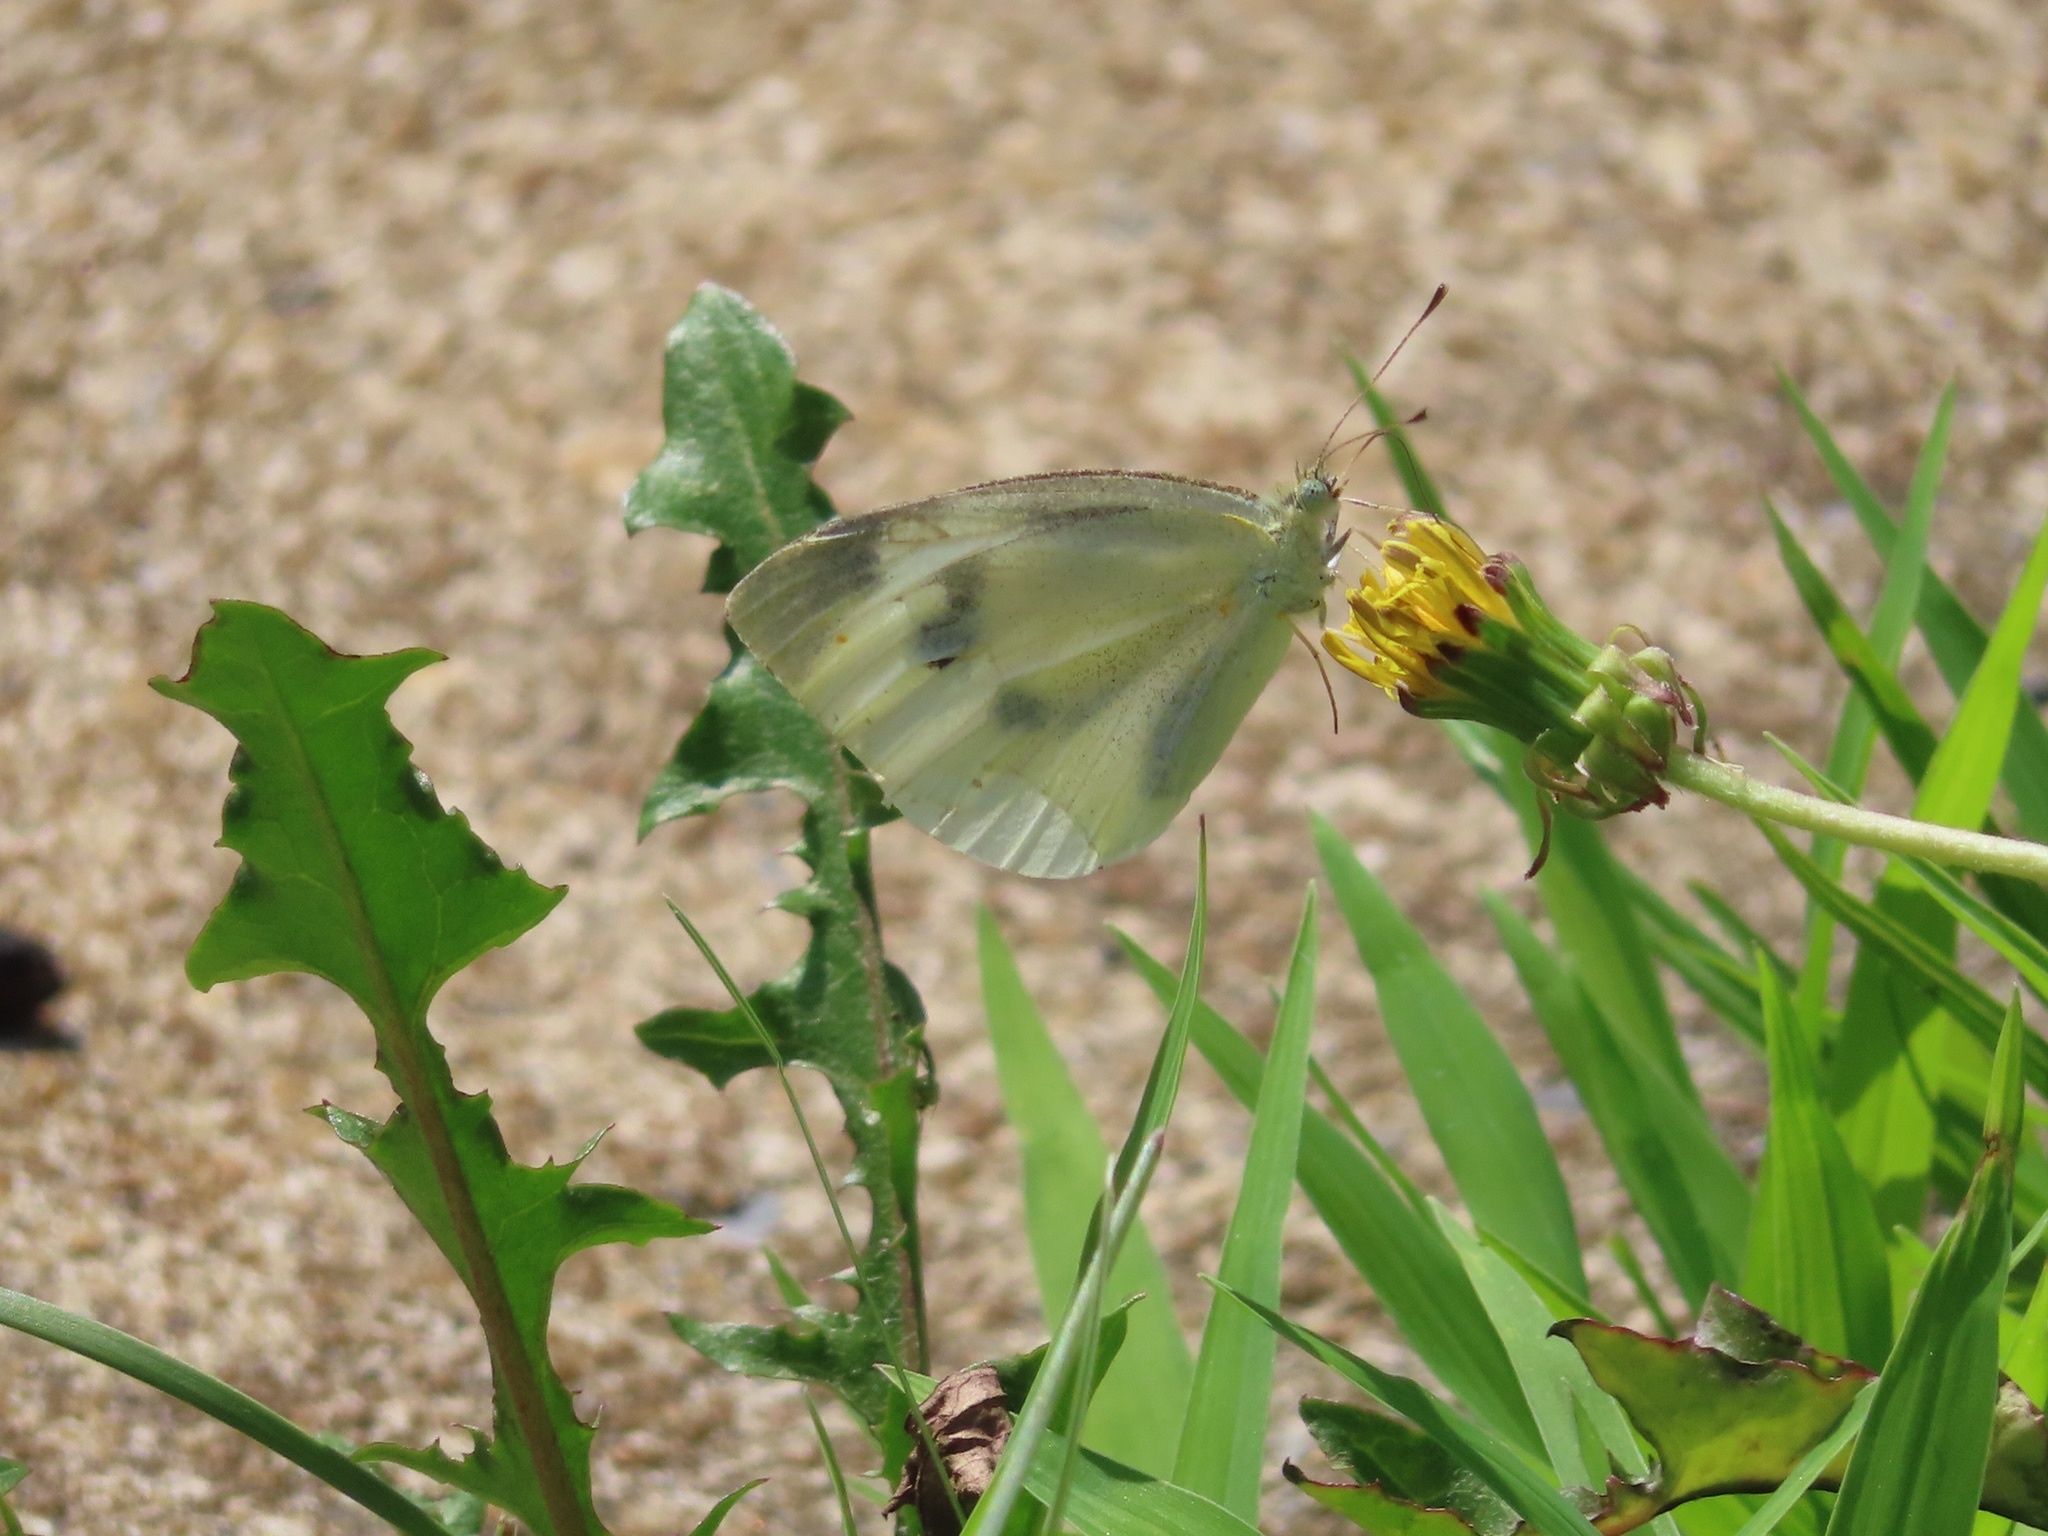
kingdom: Animalia
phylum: Arthropoda
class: Insecta
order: Lepidoptera
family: Pieridae
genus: Pieris
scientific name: Pieris rapae
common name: Small white
